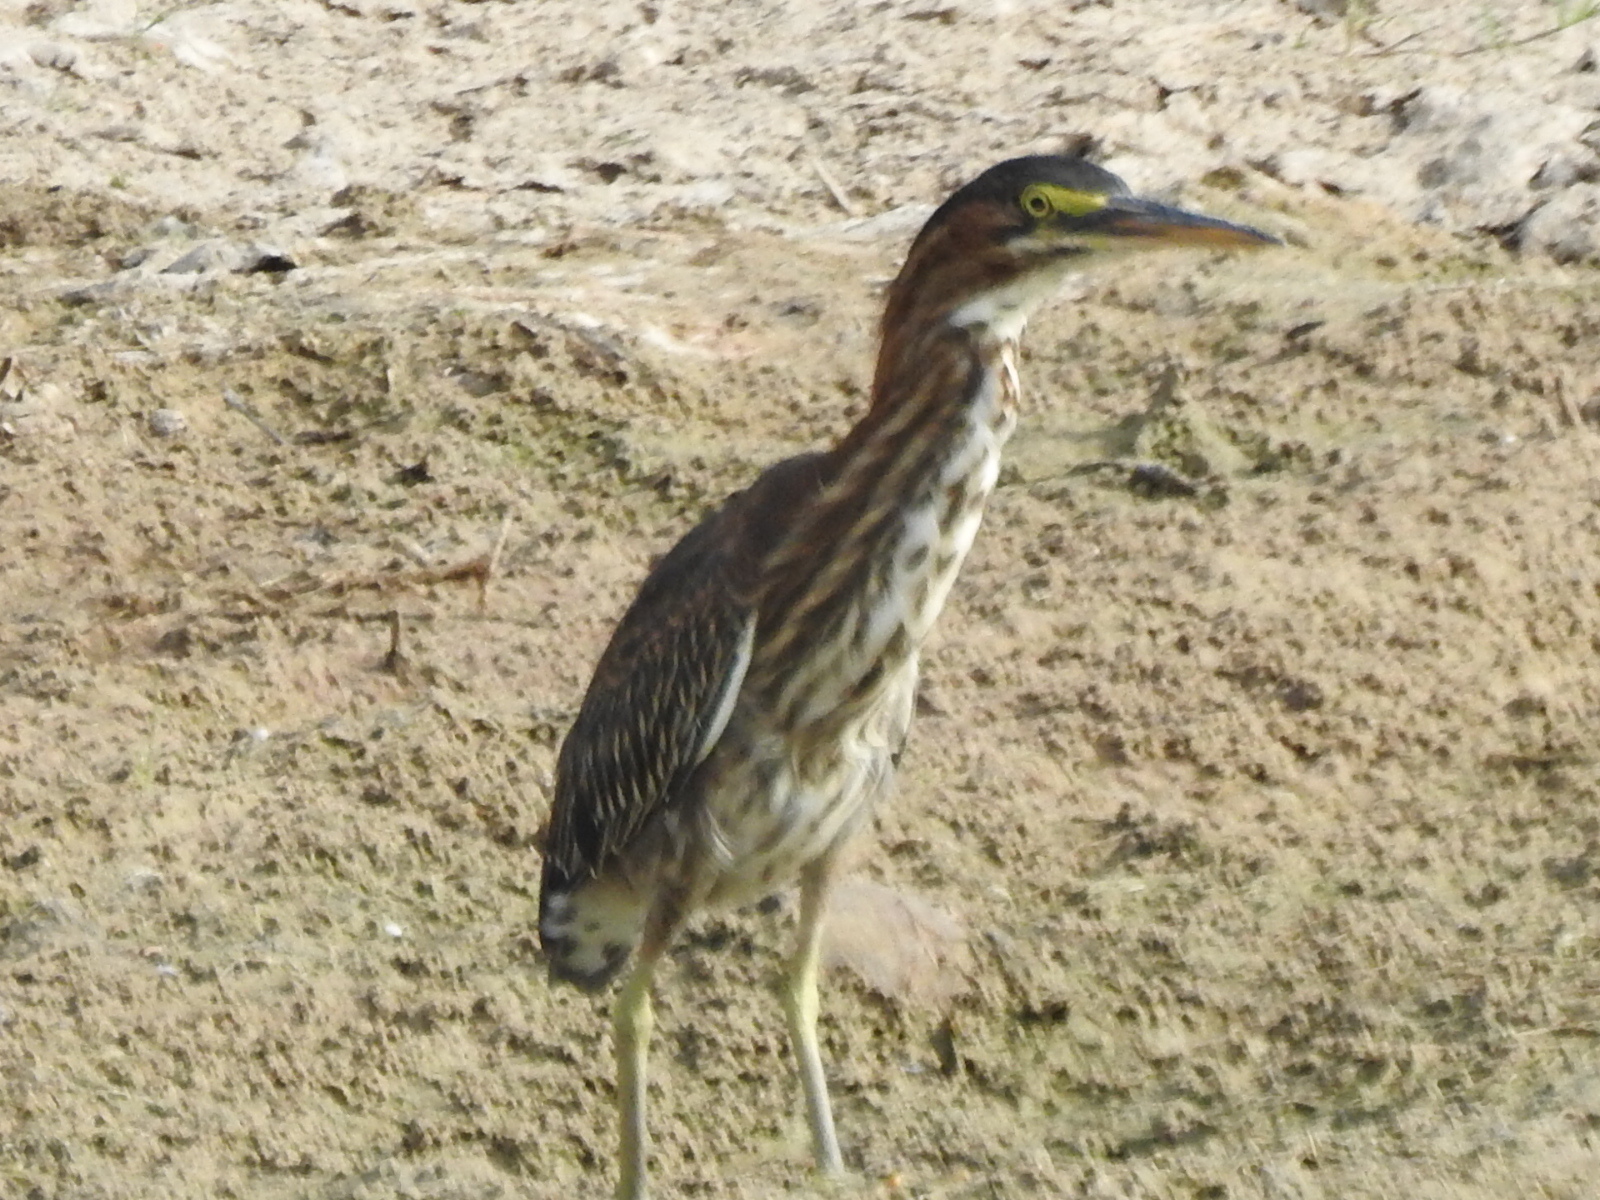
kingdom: Animalia
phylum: Chordata
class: Aves
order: Pelecaniformes
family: Ardeidae
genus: Butorides
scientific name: Butorides virescens
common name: Green heron
